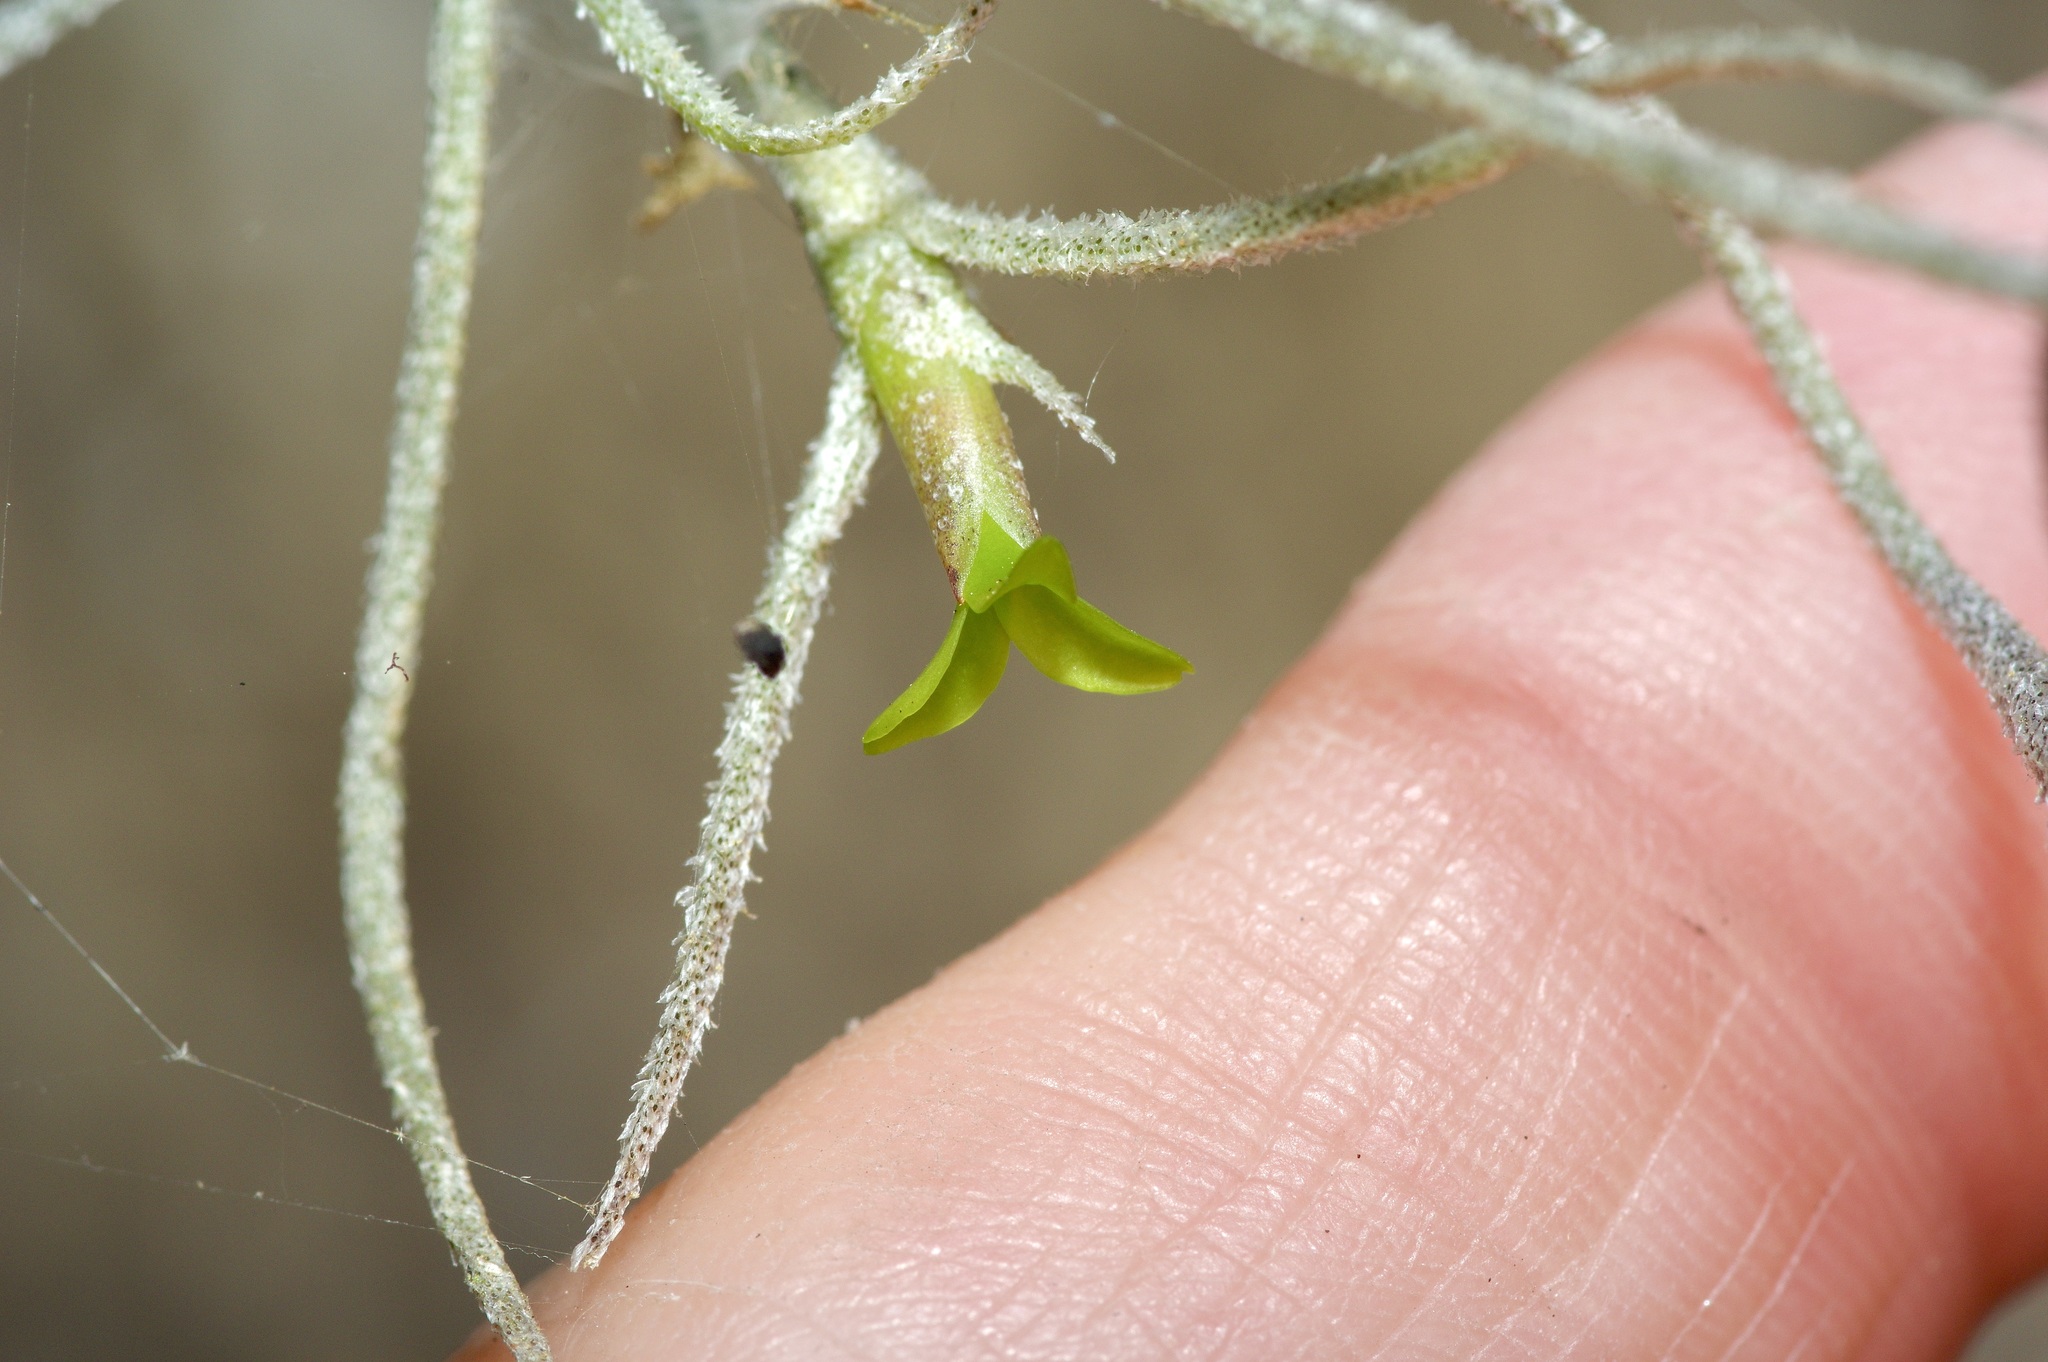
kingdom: Plantae
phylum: Tracheophyta
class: Liliopsida
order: Poales
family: Bromeliaceae
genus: Tillandsia
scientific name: Tillandsia usneoides
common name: Spanish moss
